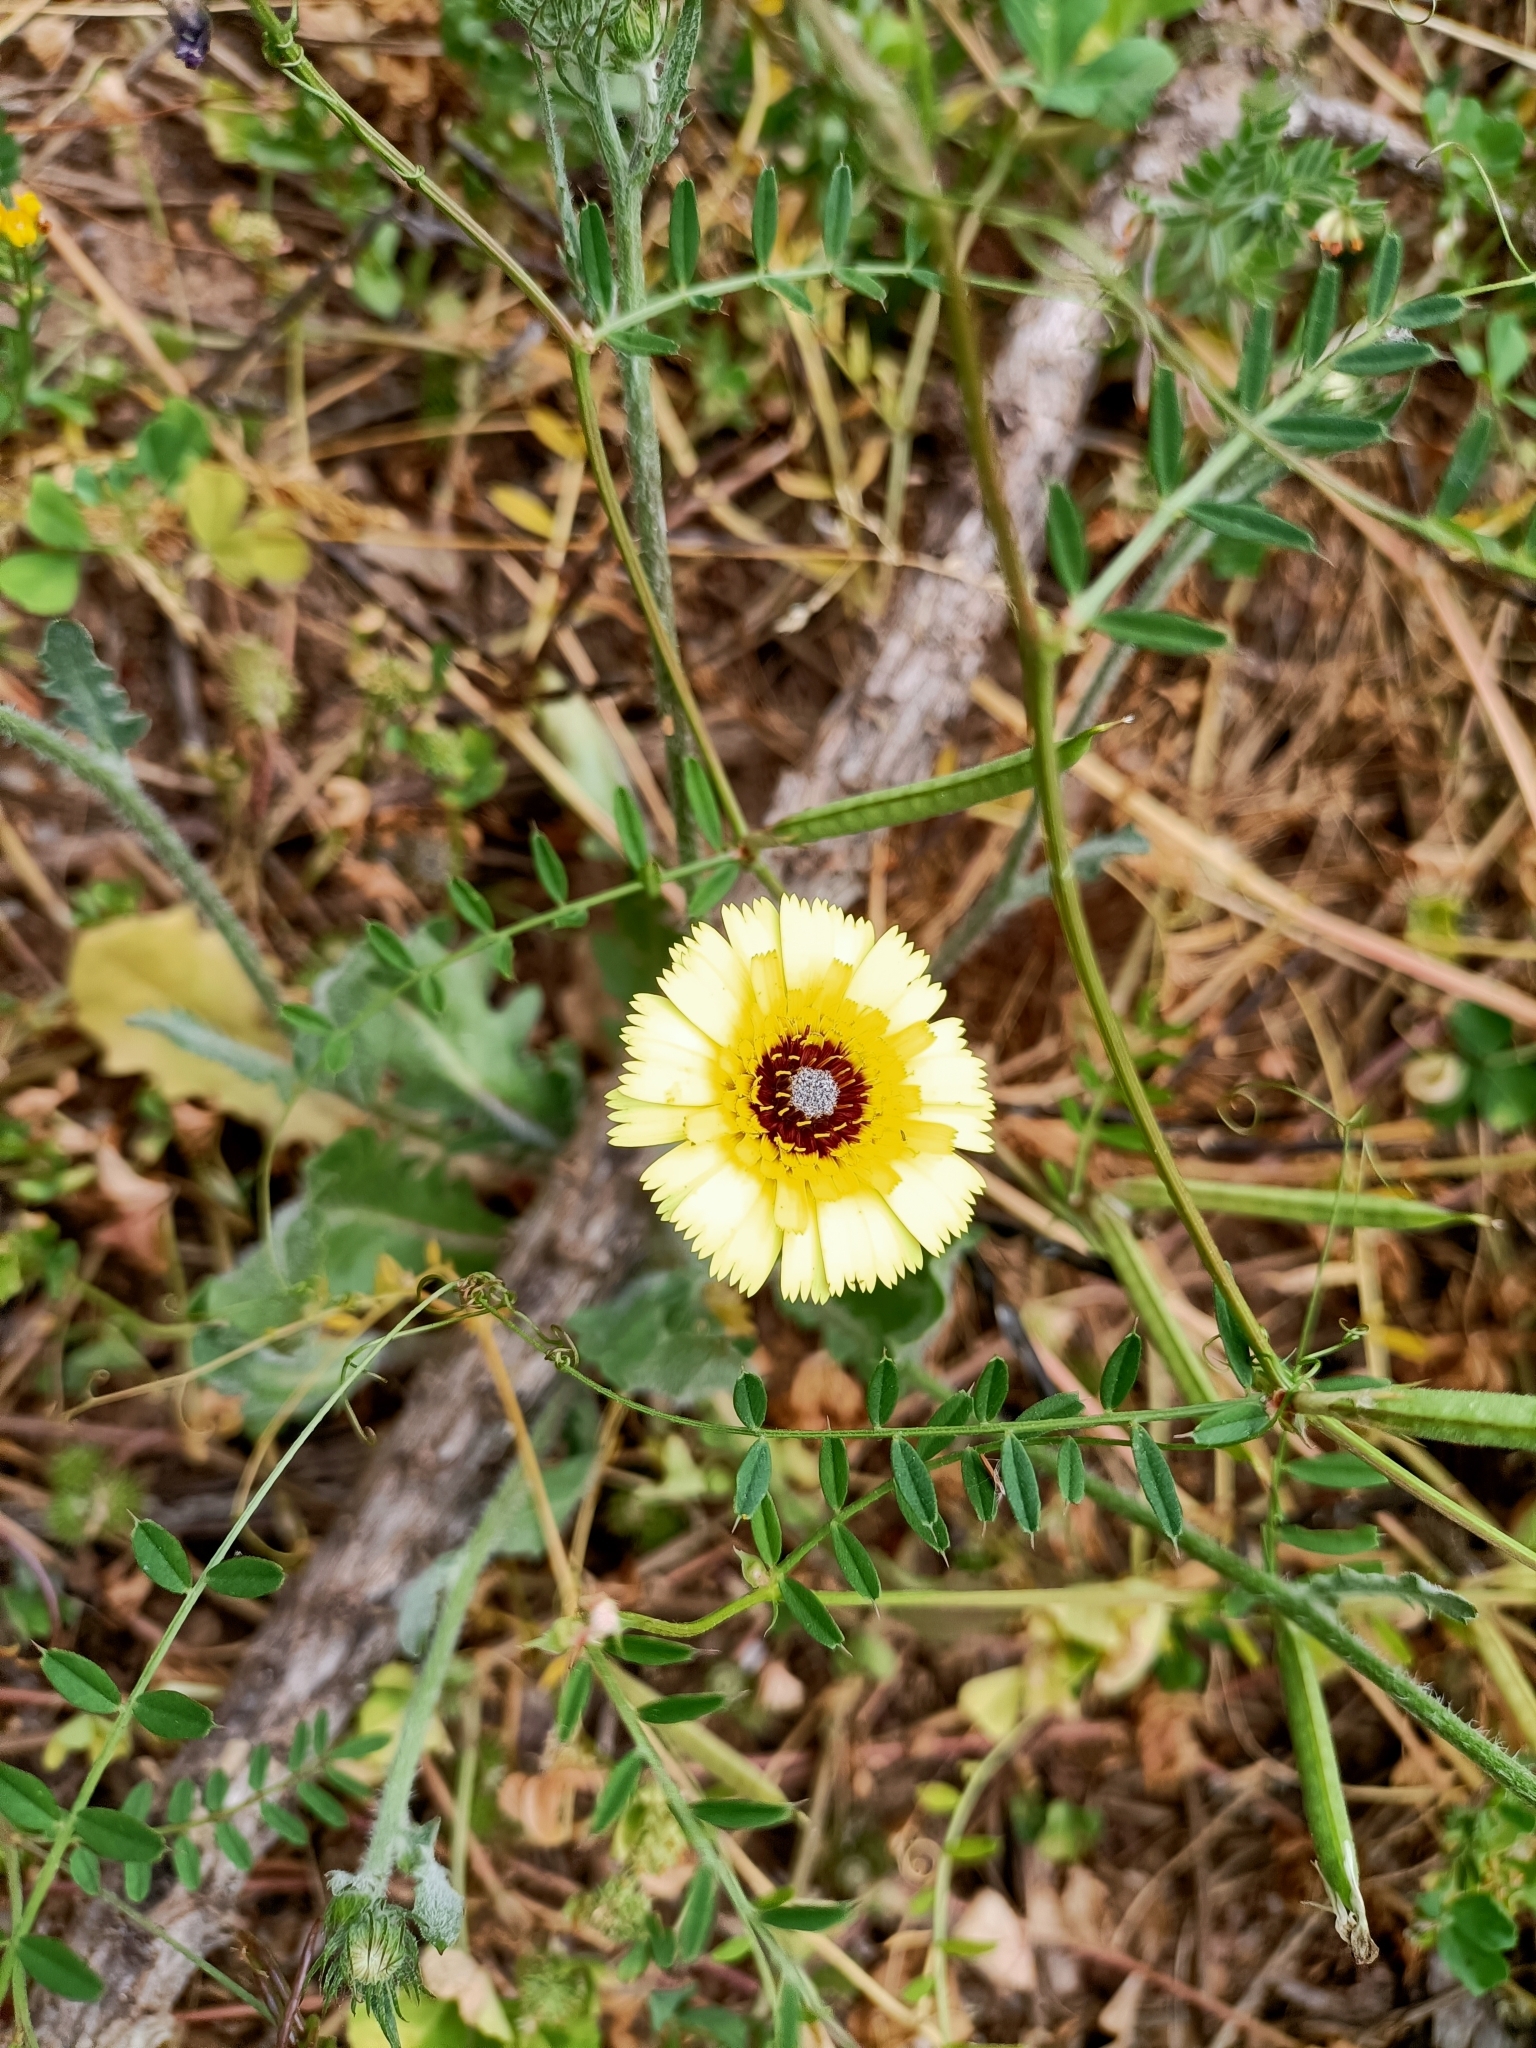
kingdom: Plantae
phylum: Tracheophyta
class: Magnoliopsida
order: Asterales
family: Asteraceae
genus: Tolpis
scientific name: Tolpis barbata
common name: Yellow hawkweed
